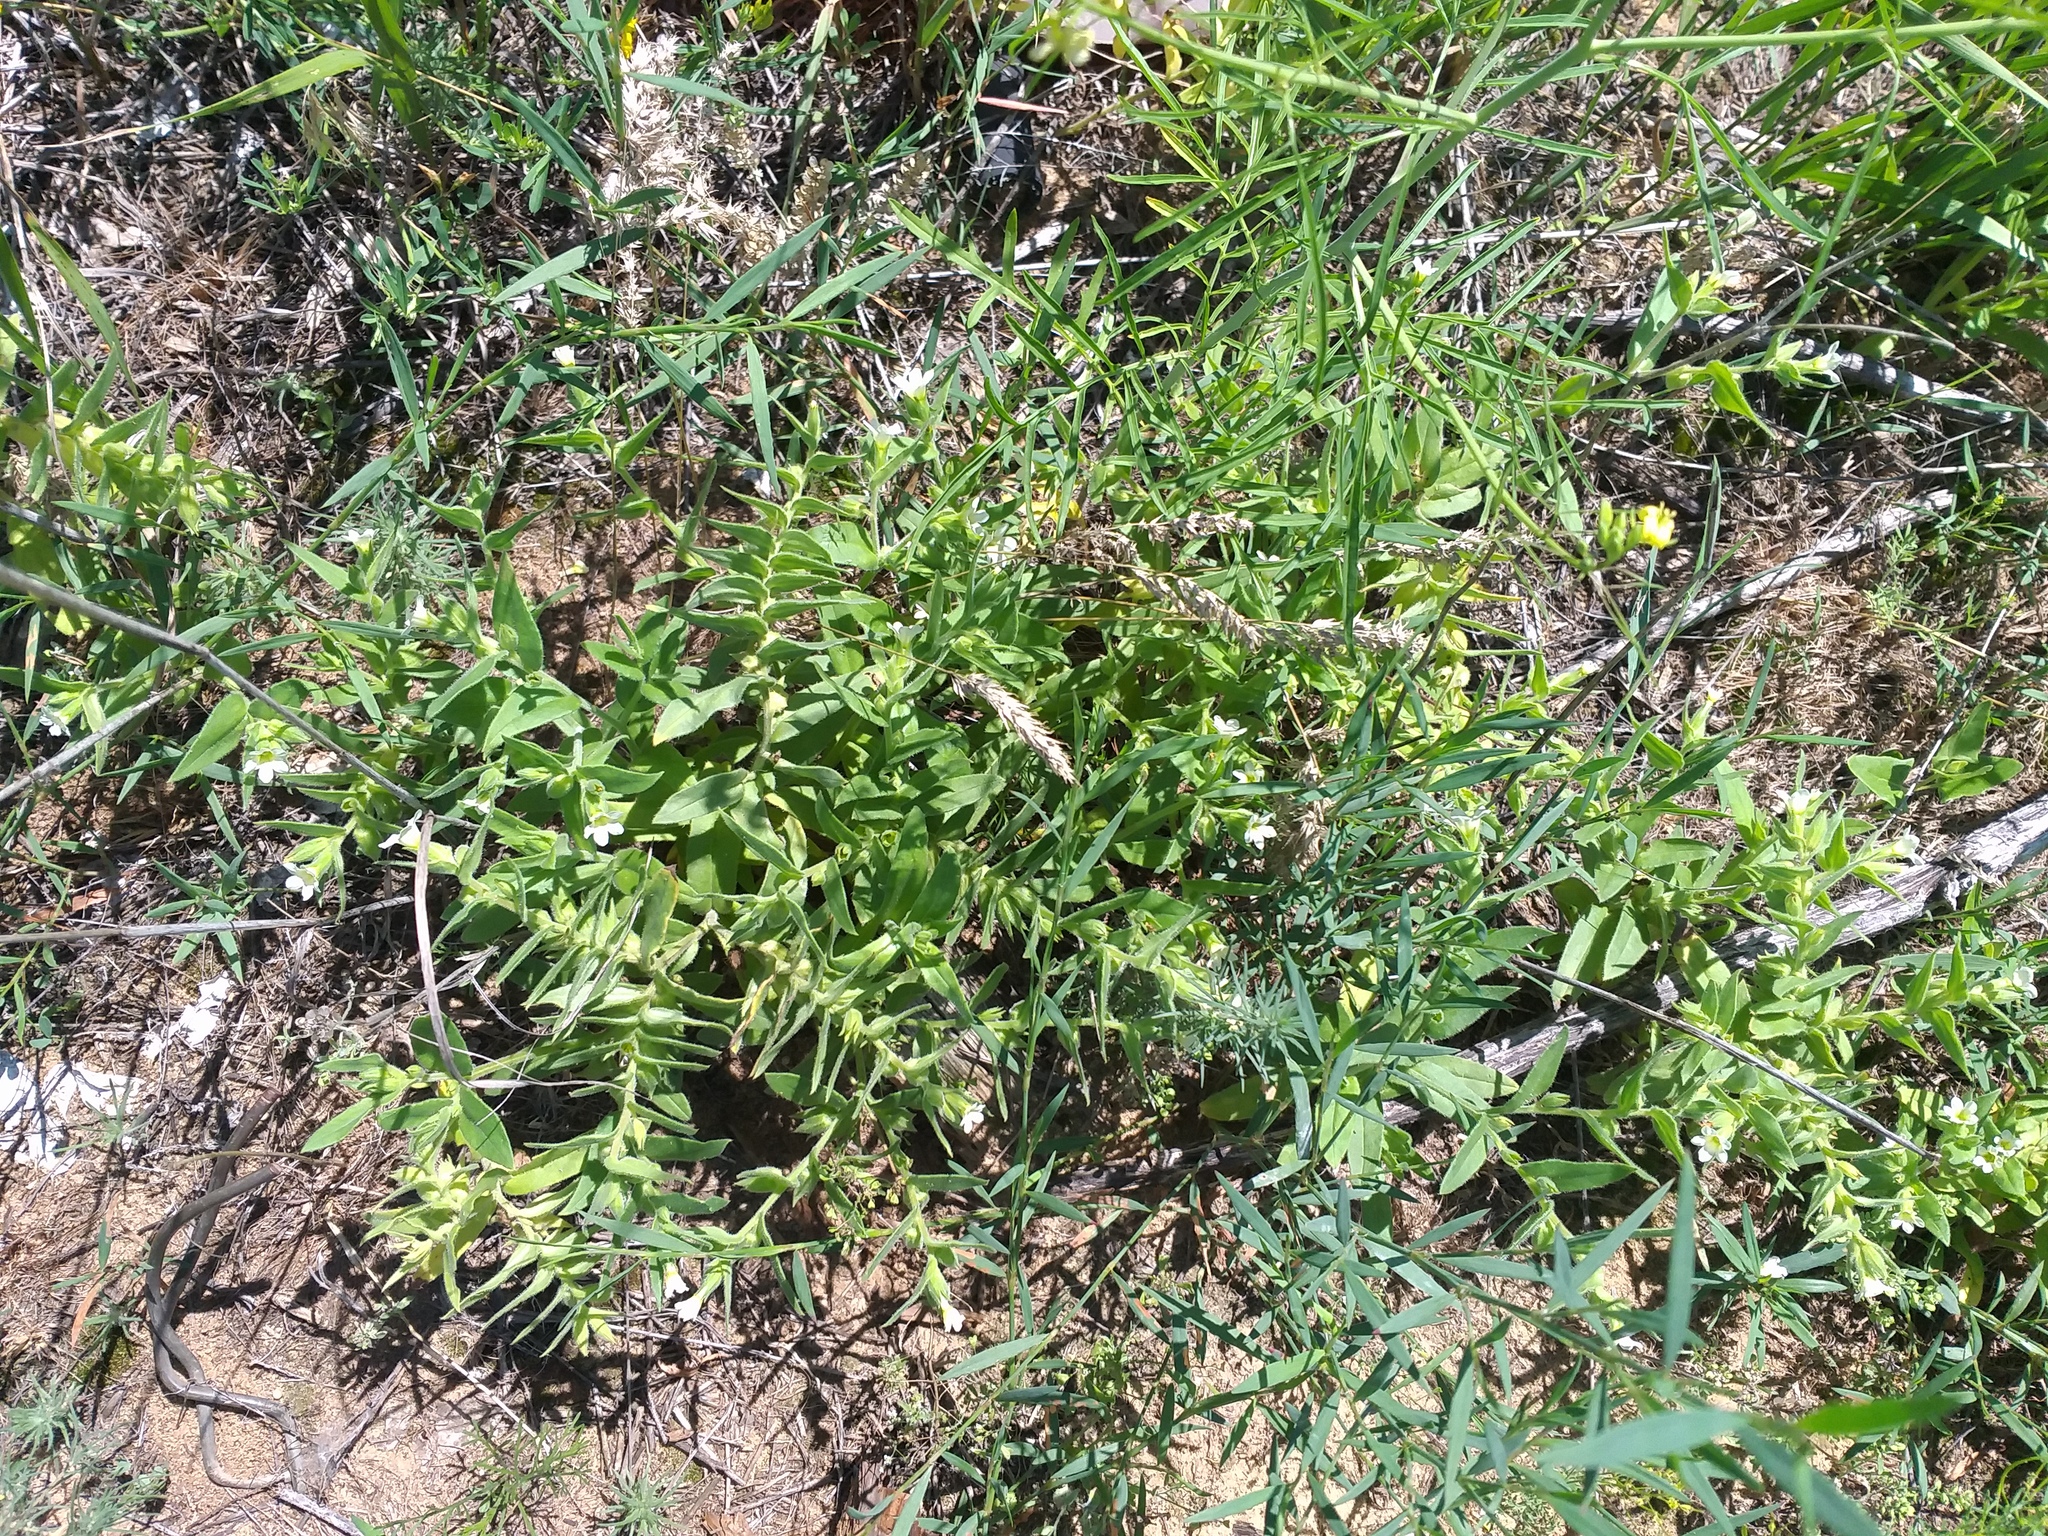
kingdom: Plantae
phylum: Tracheophyta
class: Magnoliopsida
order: Boraginales
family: Boraginaceae
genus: Nonea
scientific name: Nonea lutea
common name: Yellow nonea
